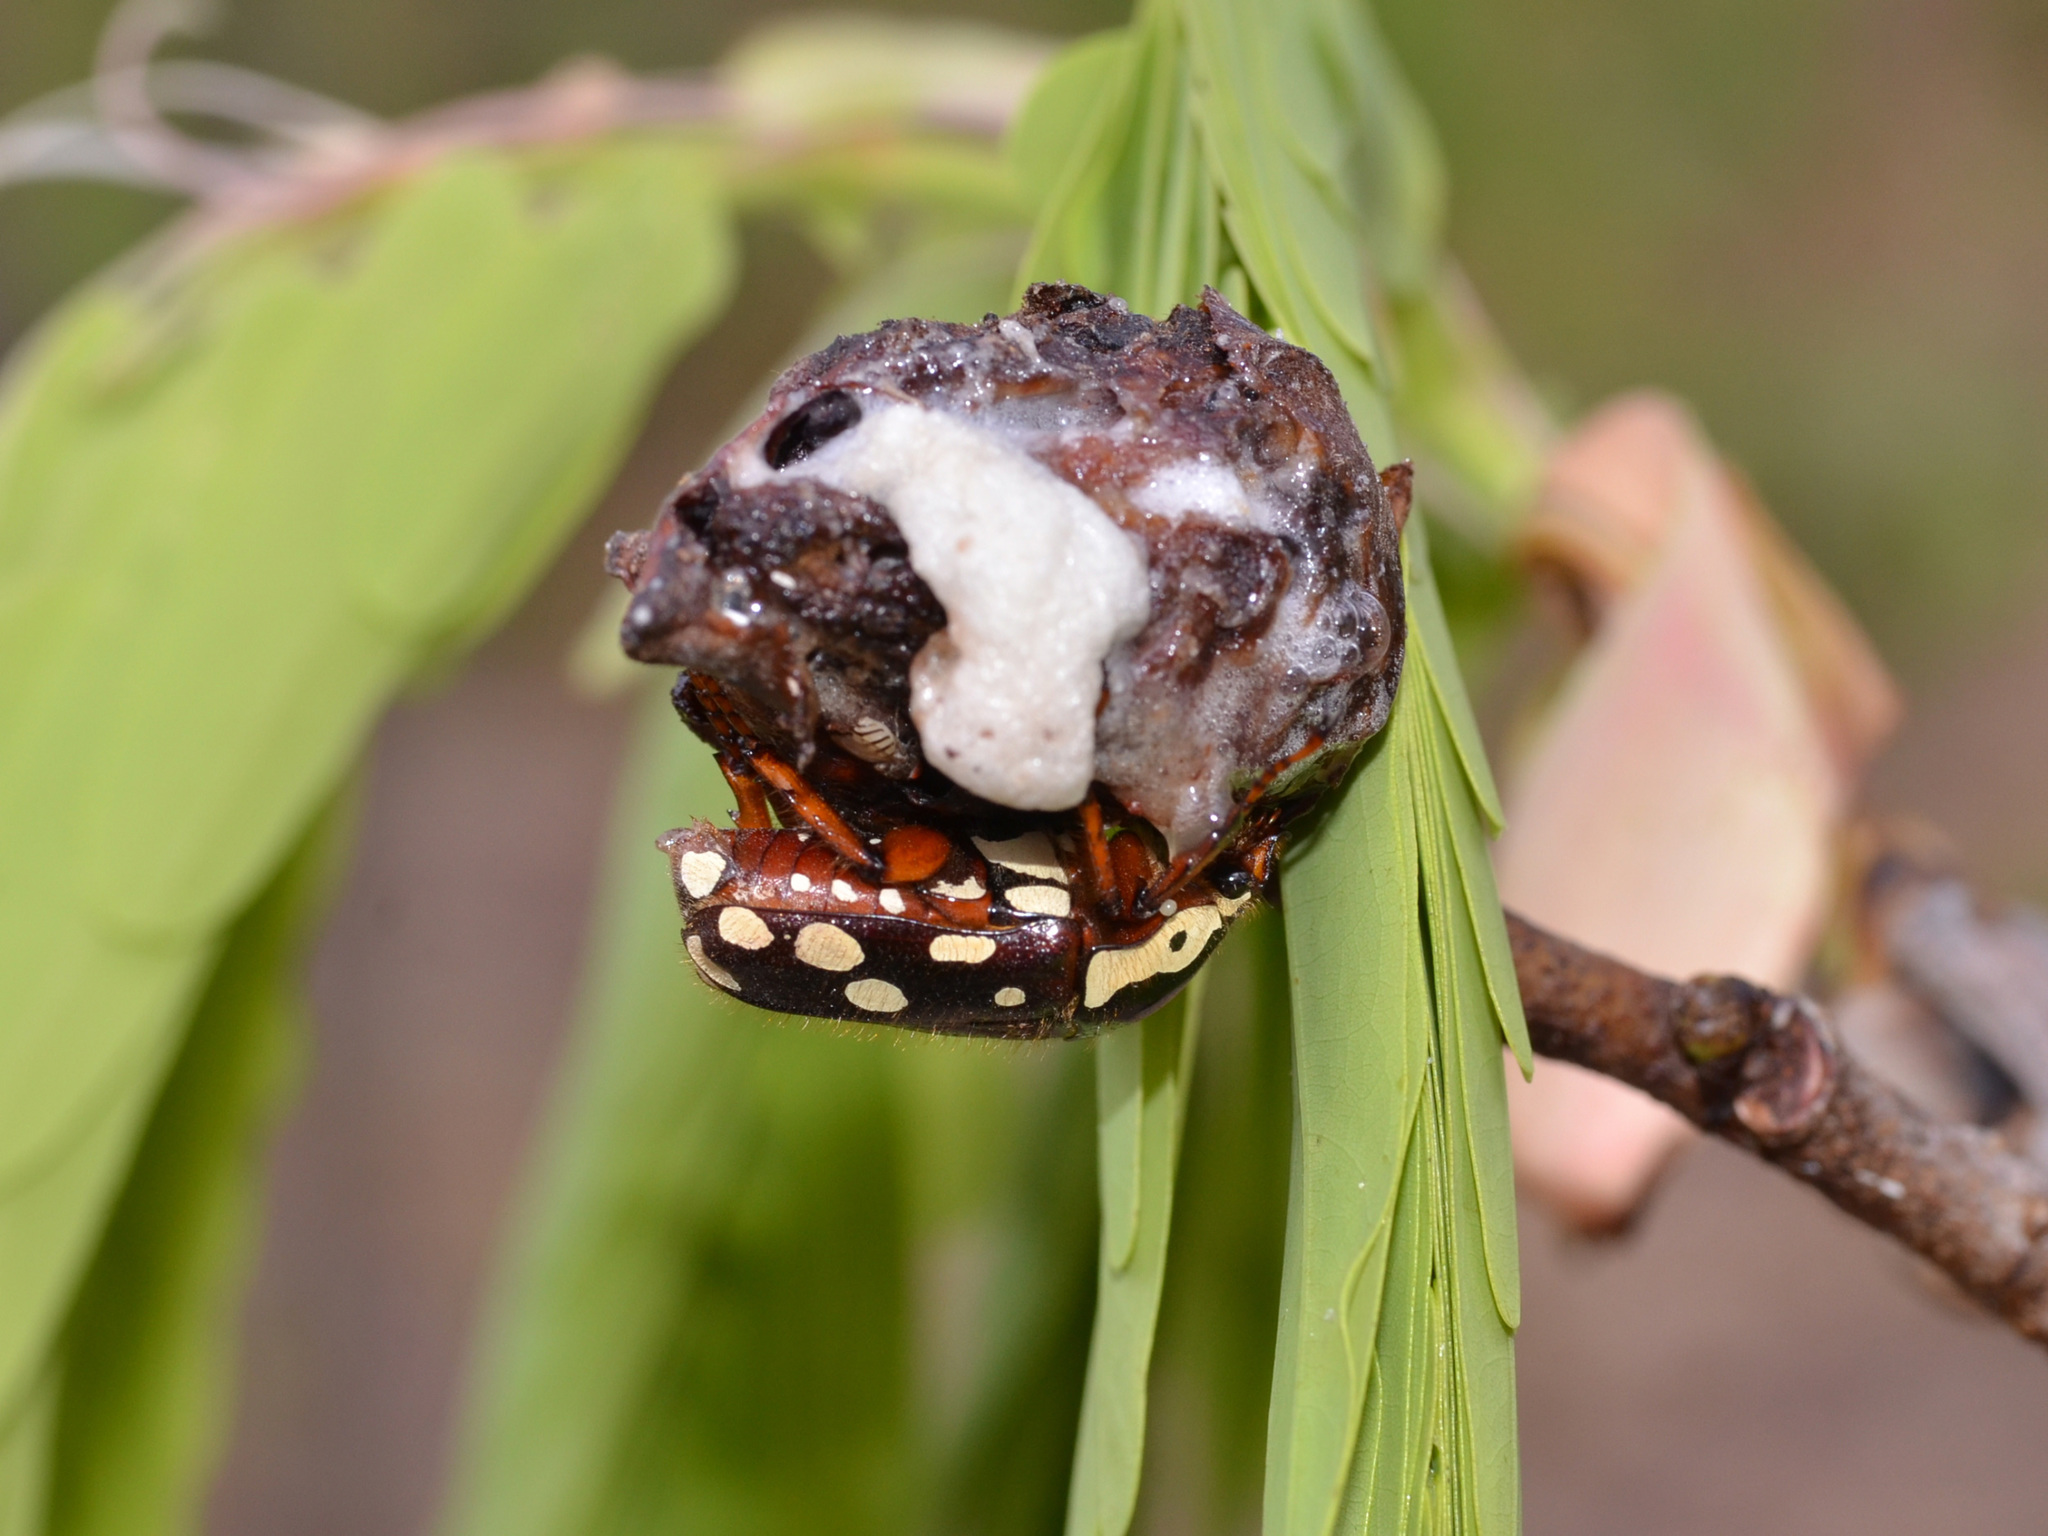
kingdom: Animalia
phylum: Arthropoda
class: Insecta
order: Coleoptera
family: Scarabaeidae
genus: Cheirolasia
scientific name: Cheirolasia burkei
